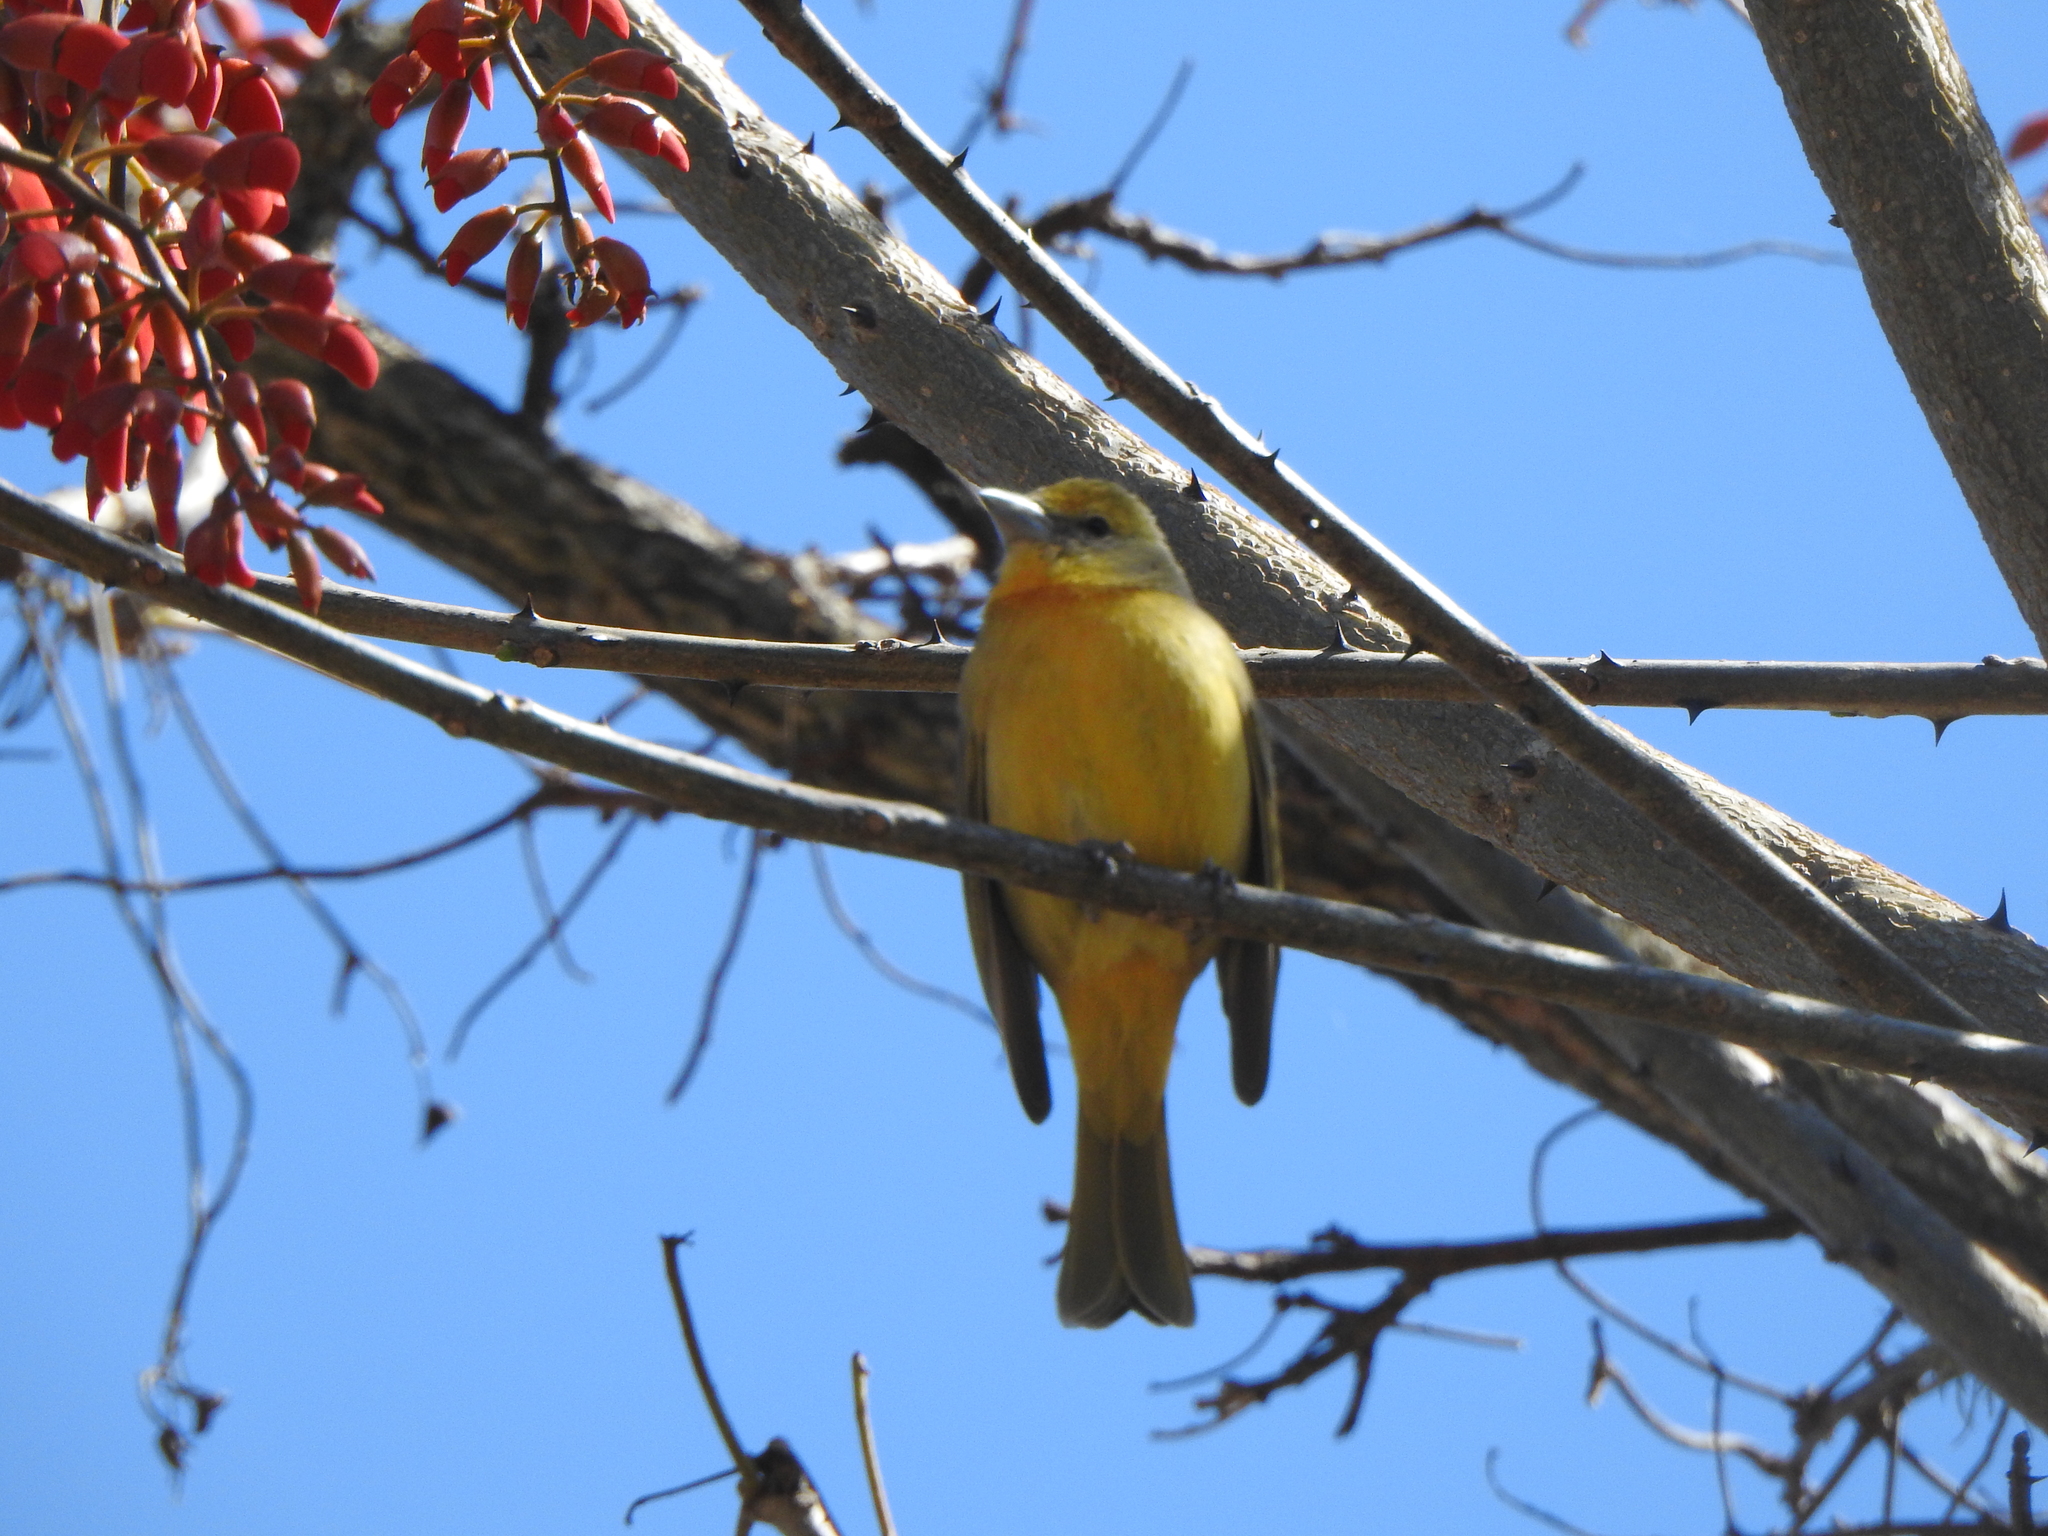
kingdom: Animalia
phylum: Chordata
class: Aves
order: Passeriformes
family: Cardinalidae
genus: Piranga
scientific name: Piranga flava
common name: Red tanager
